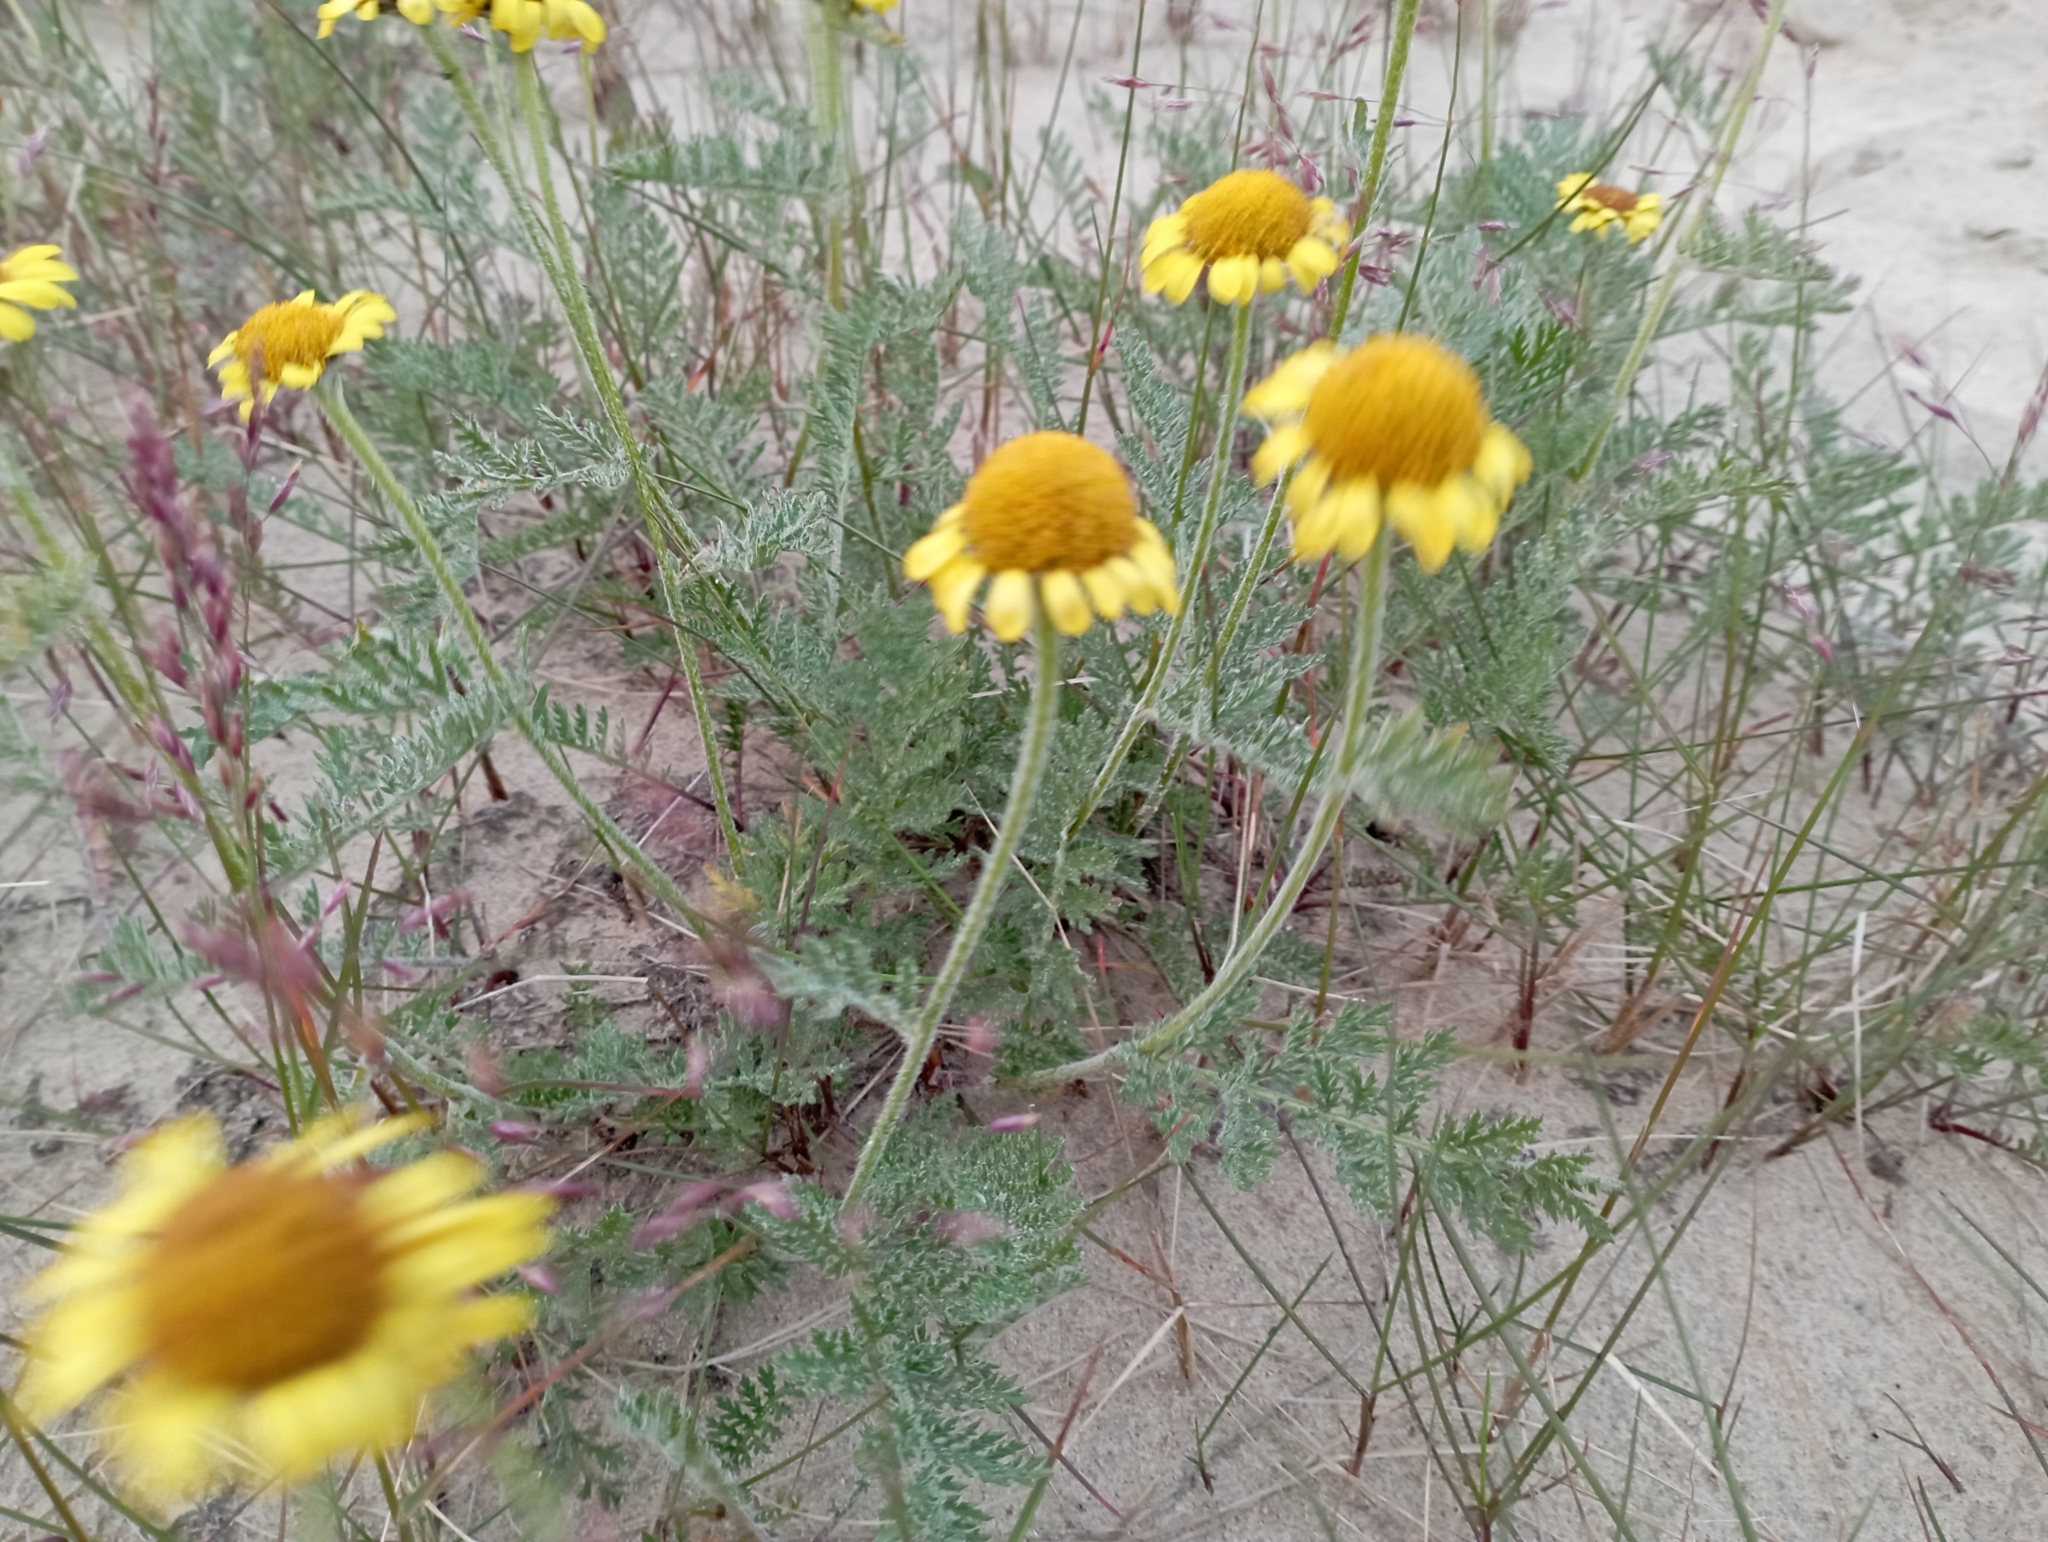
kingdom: Plantae
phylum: Tracheophyta
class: Magnoliopsida
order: Asterales
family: Asteraceae
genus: Tanacetum
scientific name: Tanacetum bipinnatum
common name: Dwarf tansy
